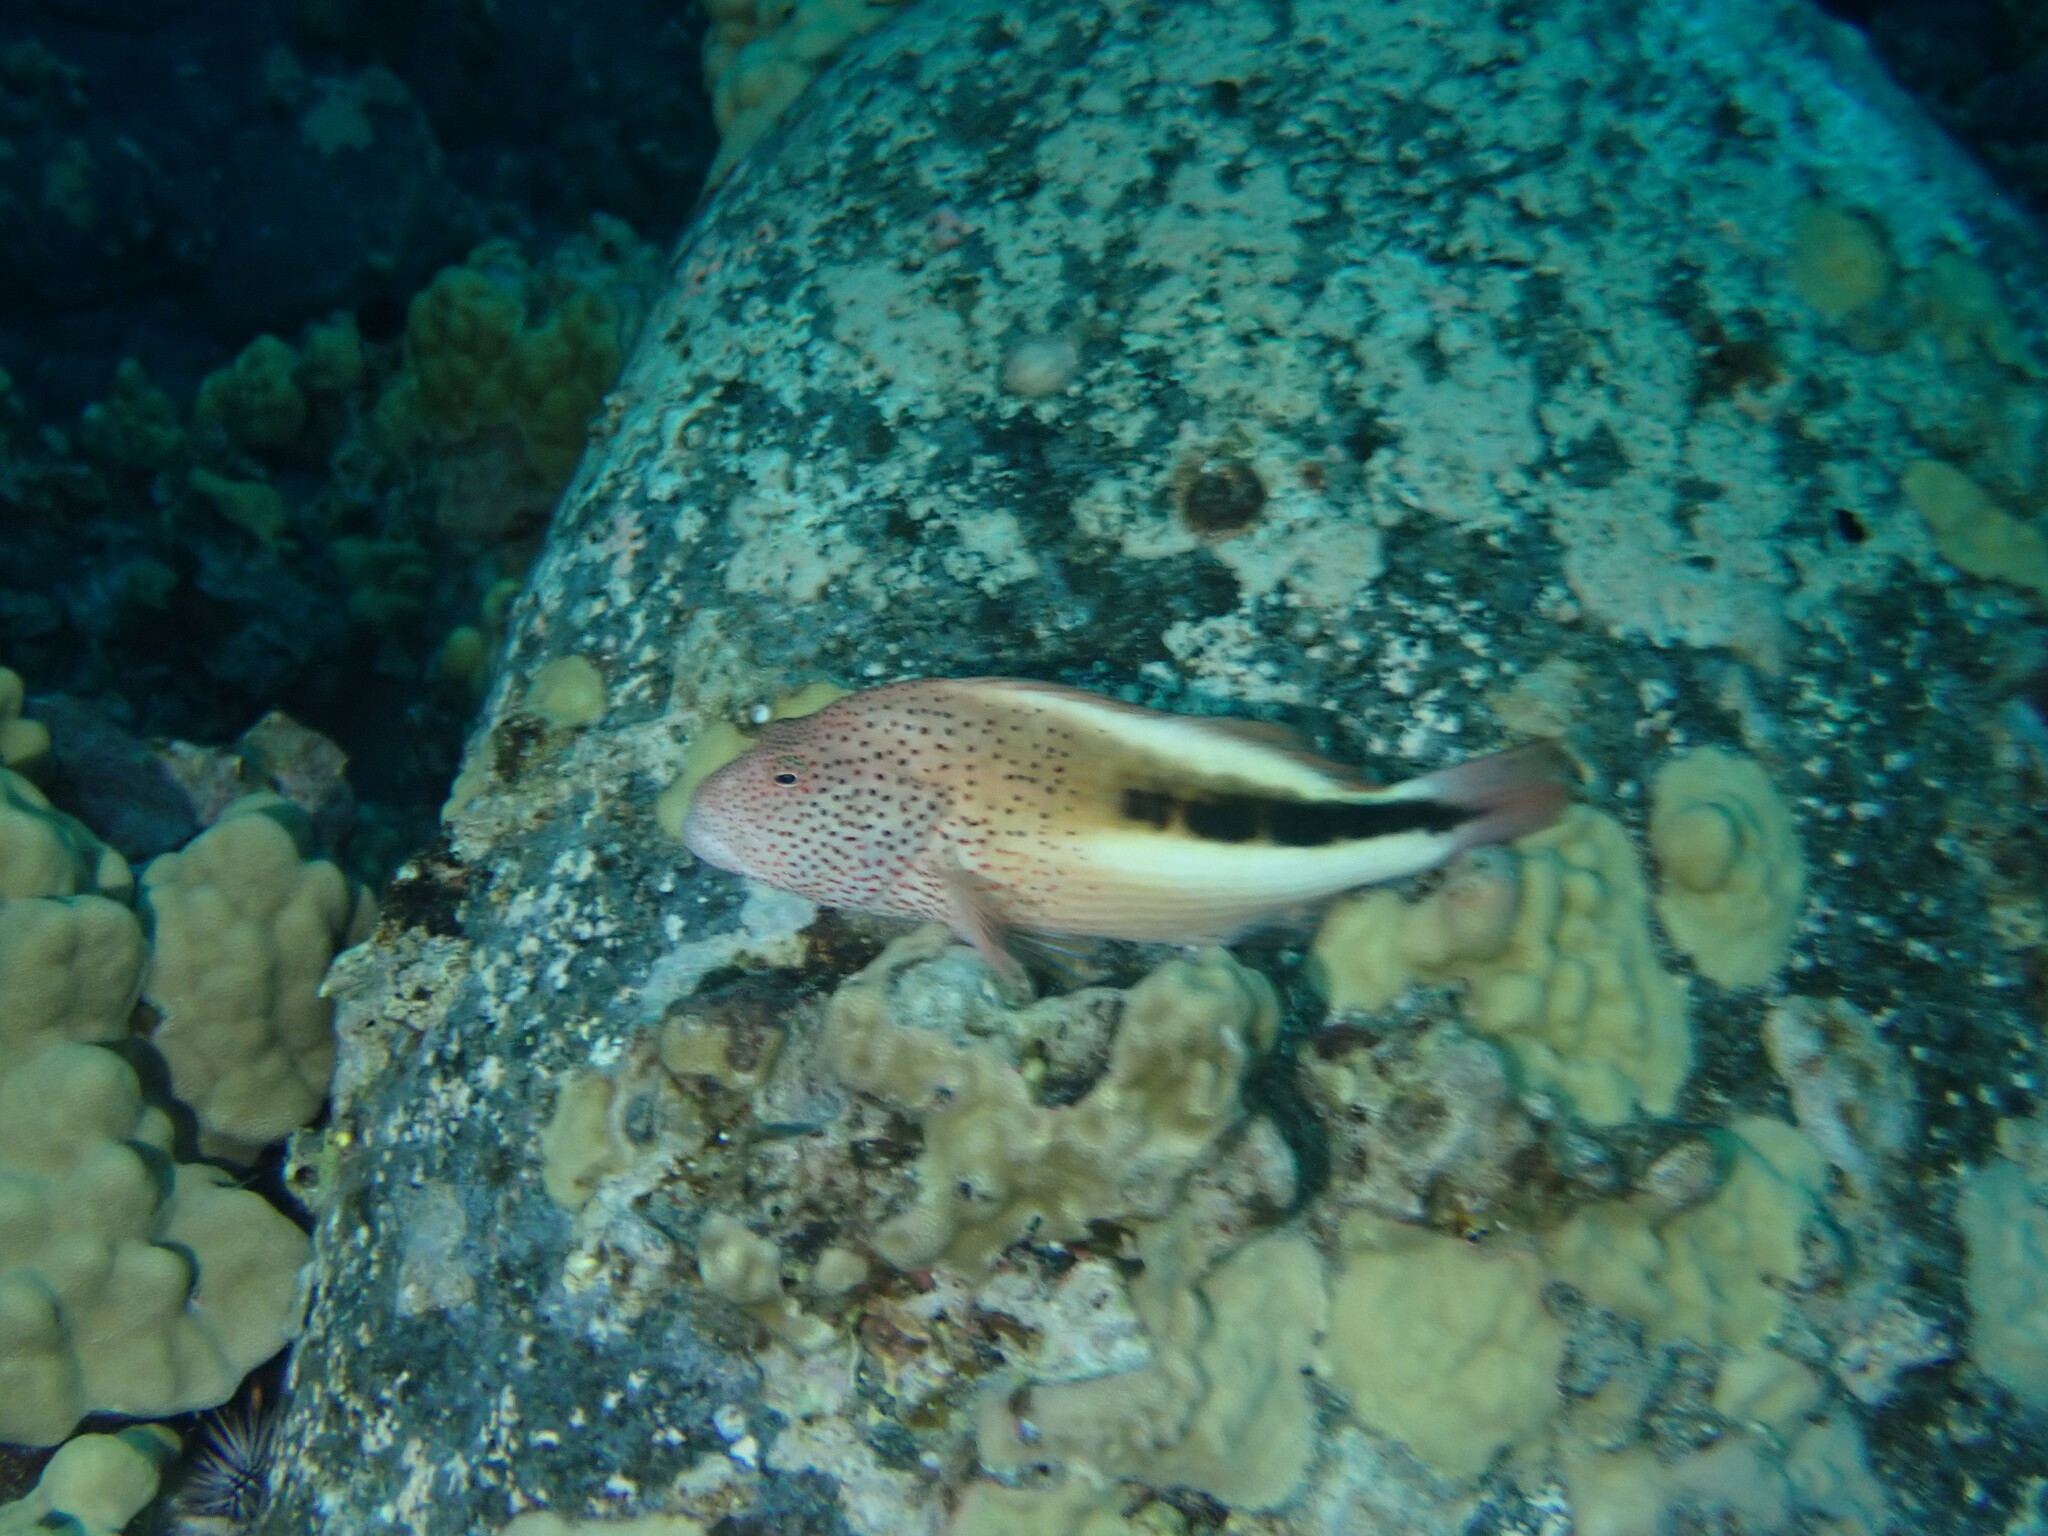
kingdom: Animalia
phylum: Chordata
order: Perciformes
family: Cirrhitidae
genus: Paracirrhites
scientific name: Paracirrhites forsteri
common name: Freckled hawkfish
